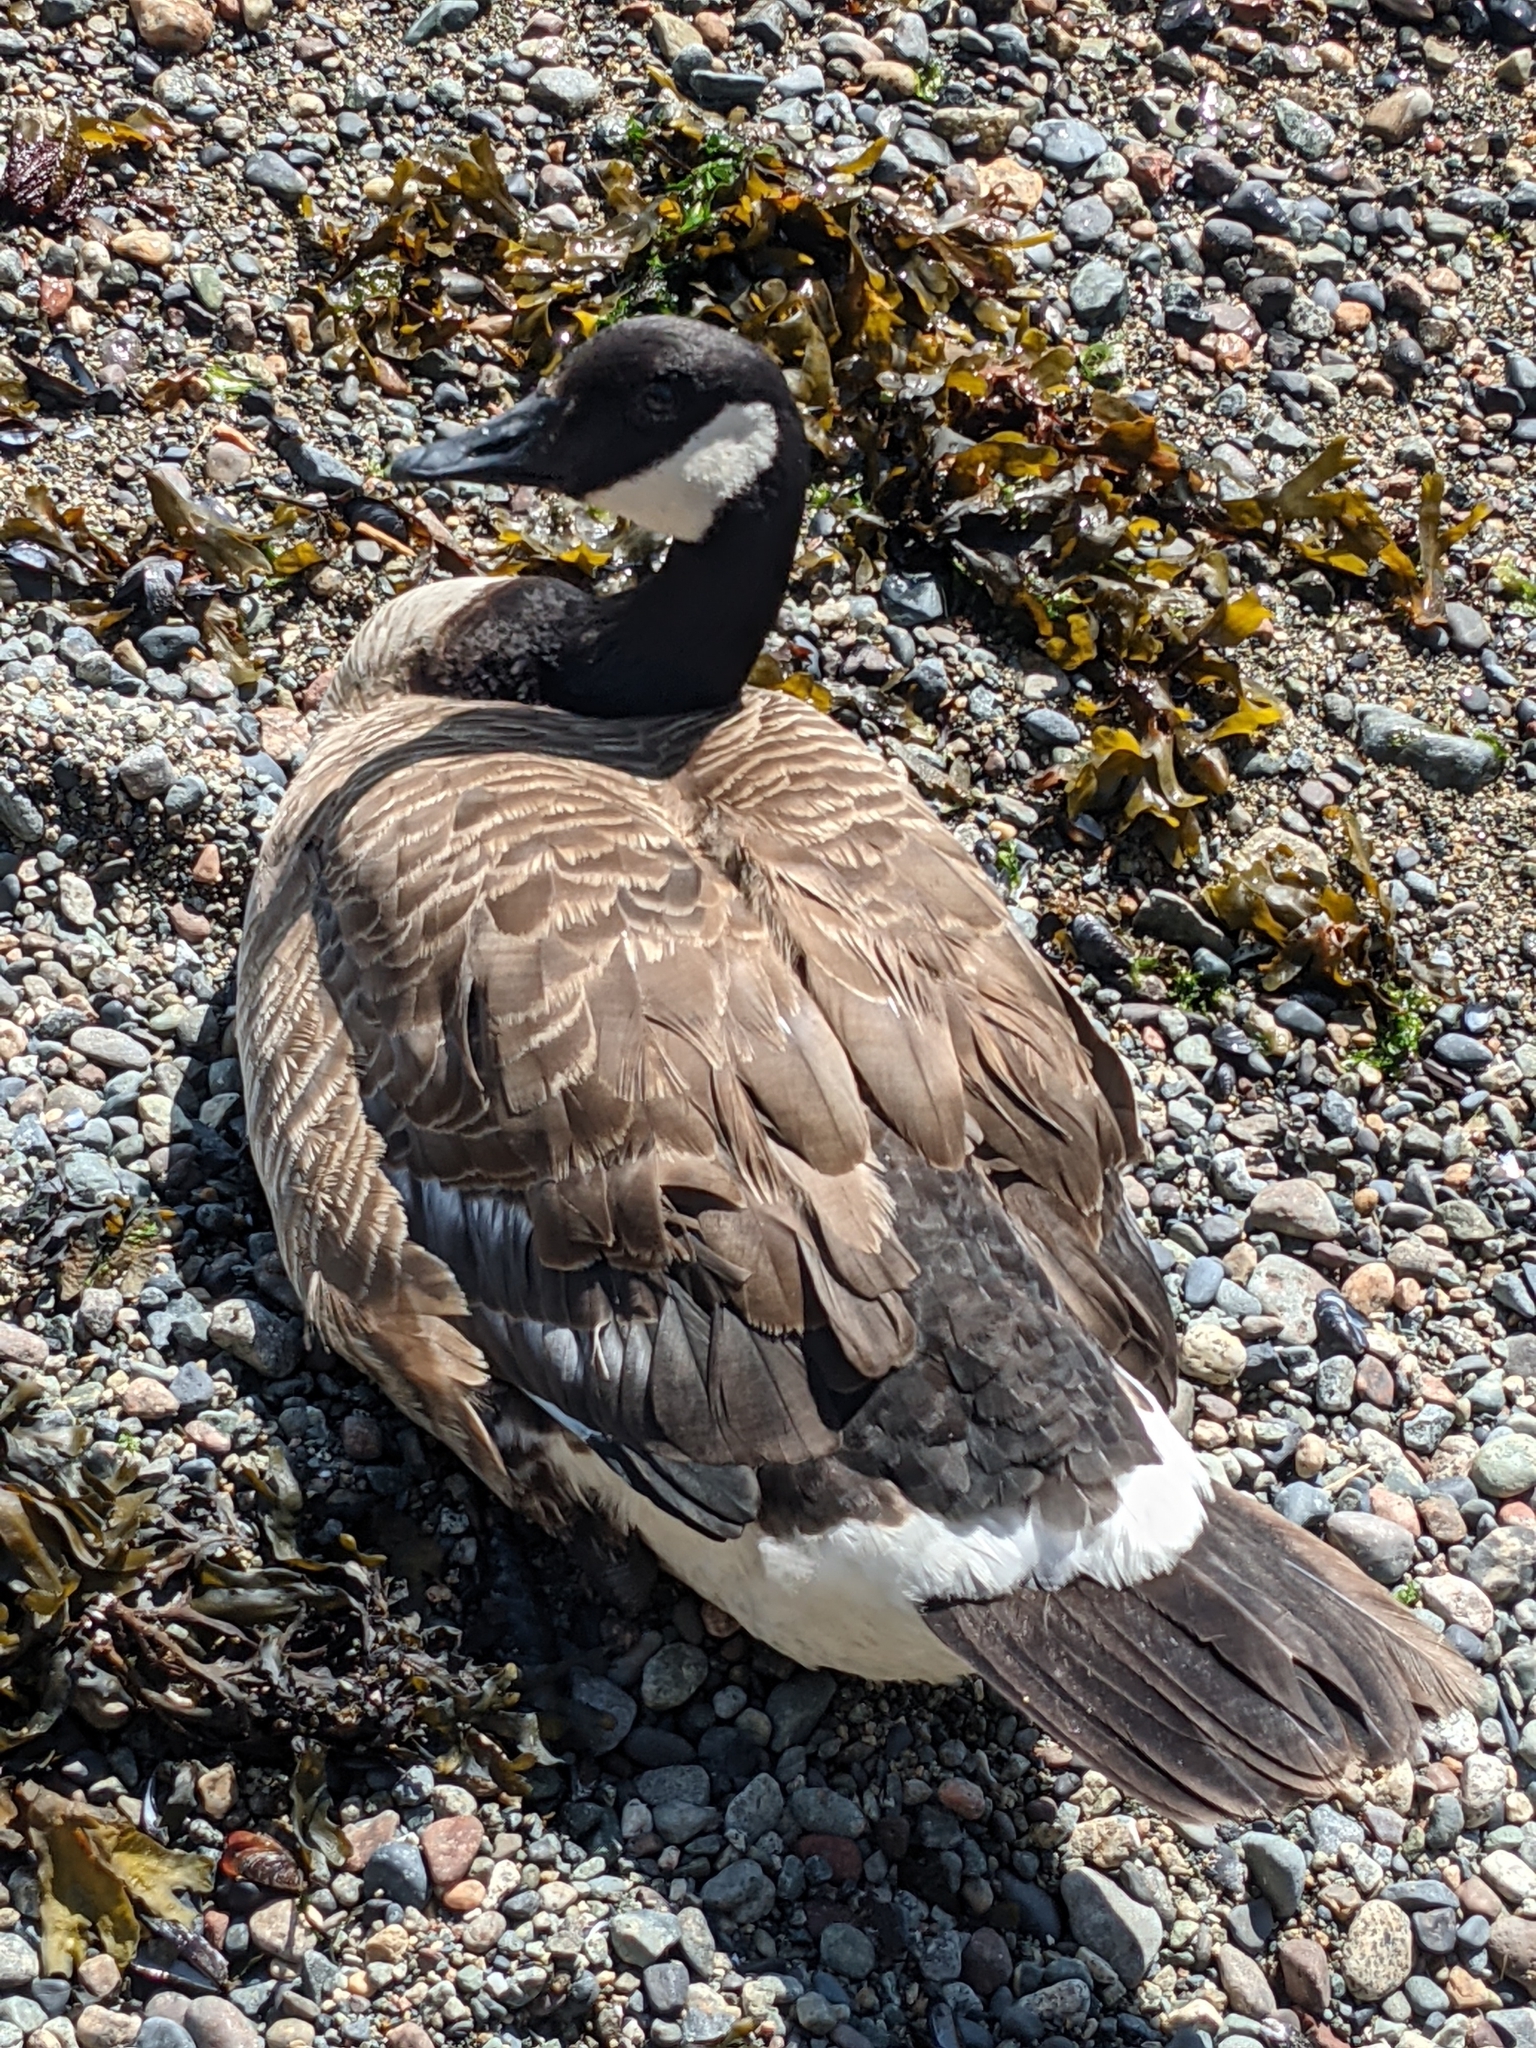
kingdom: Animalia
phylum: Chordata
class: Aves
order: Anseriformes
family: Anatidae
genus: Branta
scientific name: Branta canadensis
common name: Canada goose
